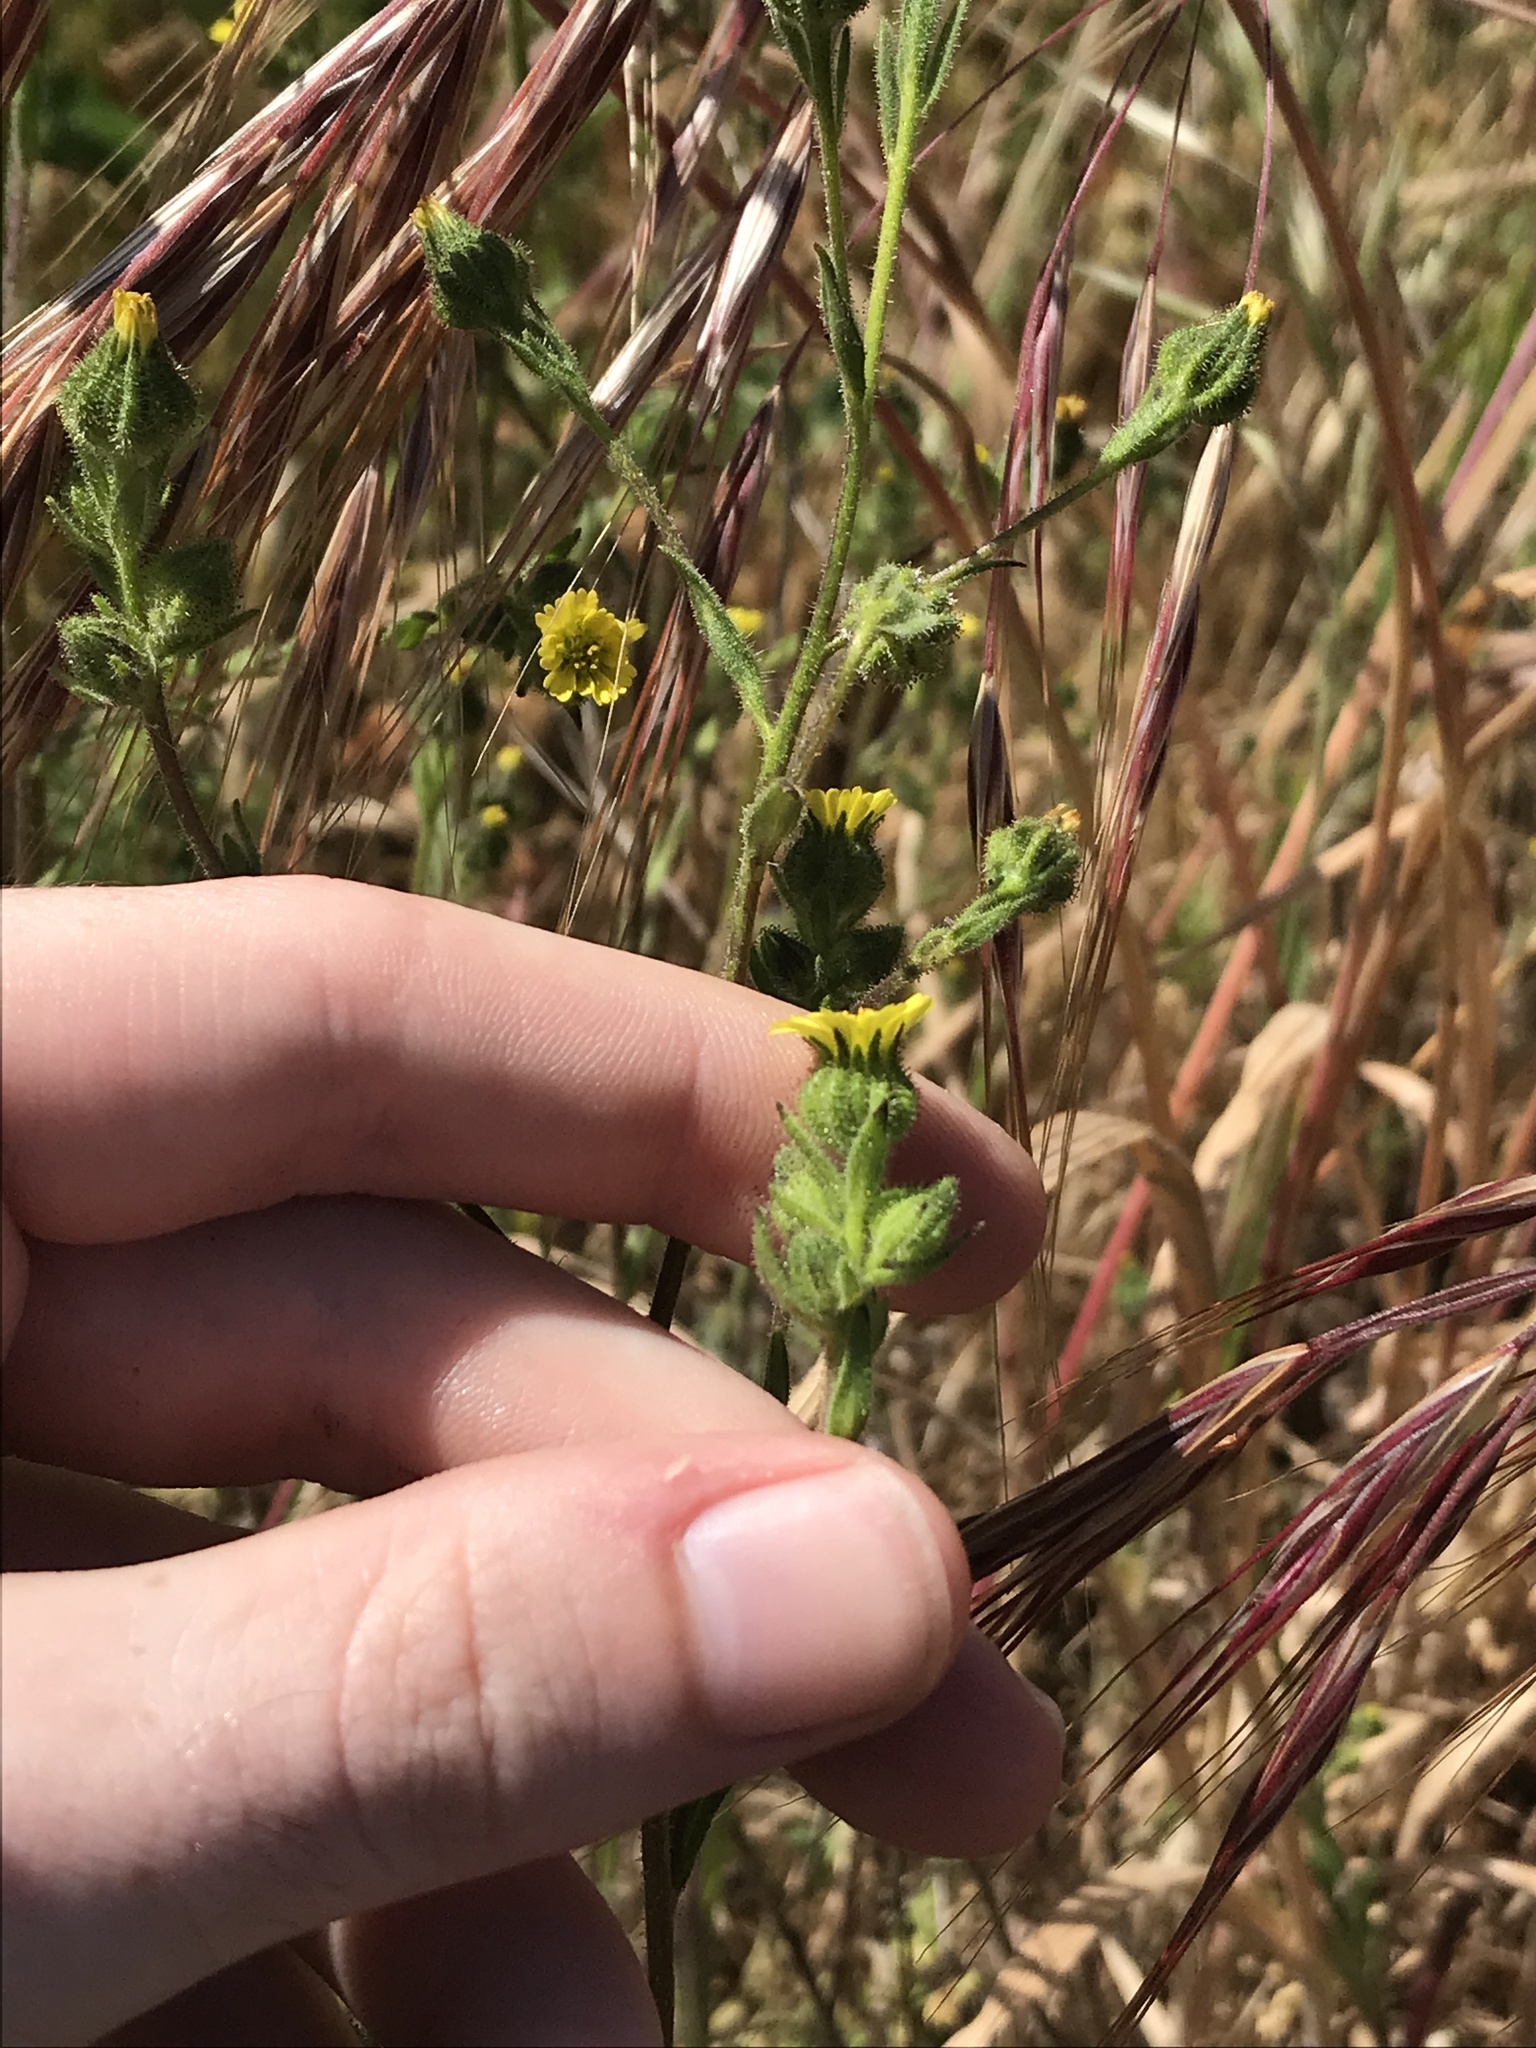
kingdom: Plantae
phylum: Tracheophyta
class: Magnoliopsida
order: Asterales
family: Asteraceae
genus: Madia
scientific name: Madia gracilis
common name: Grassy tarweed
